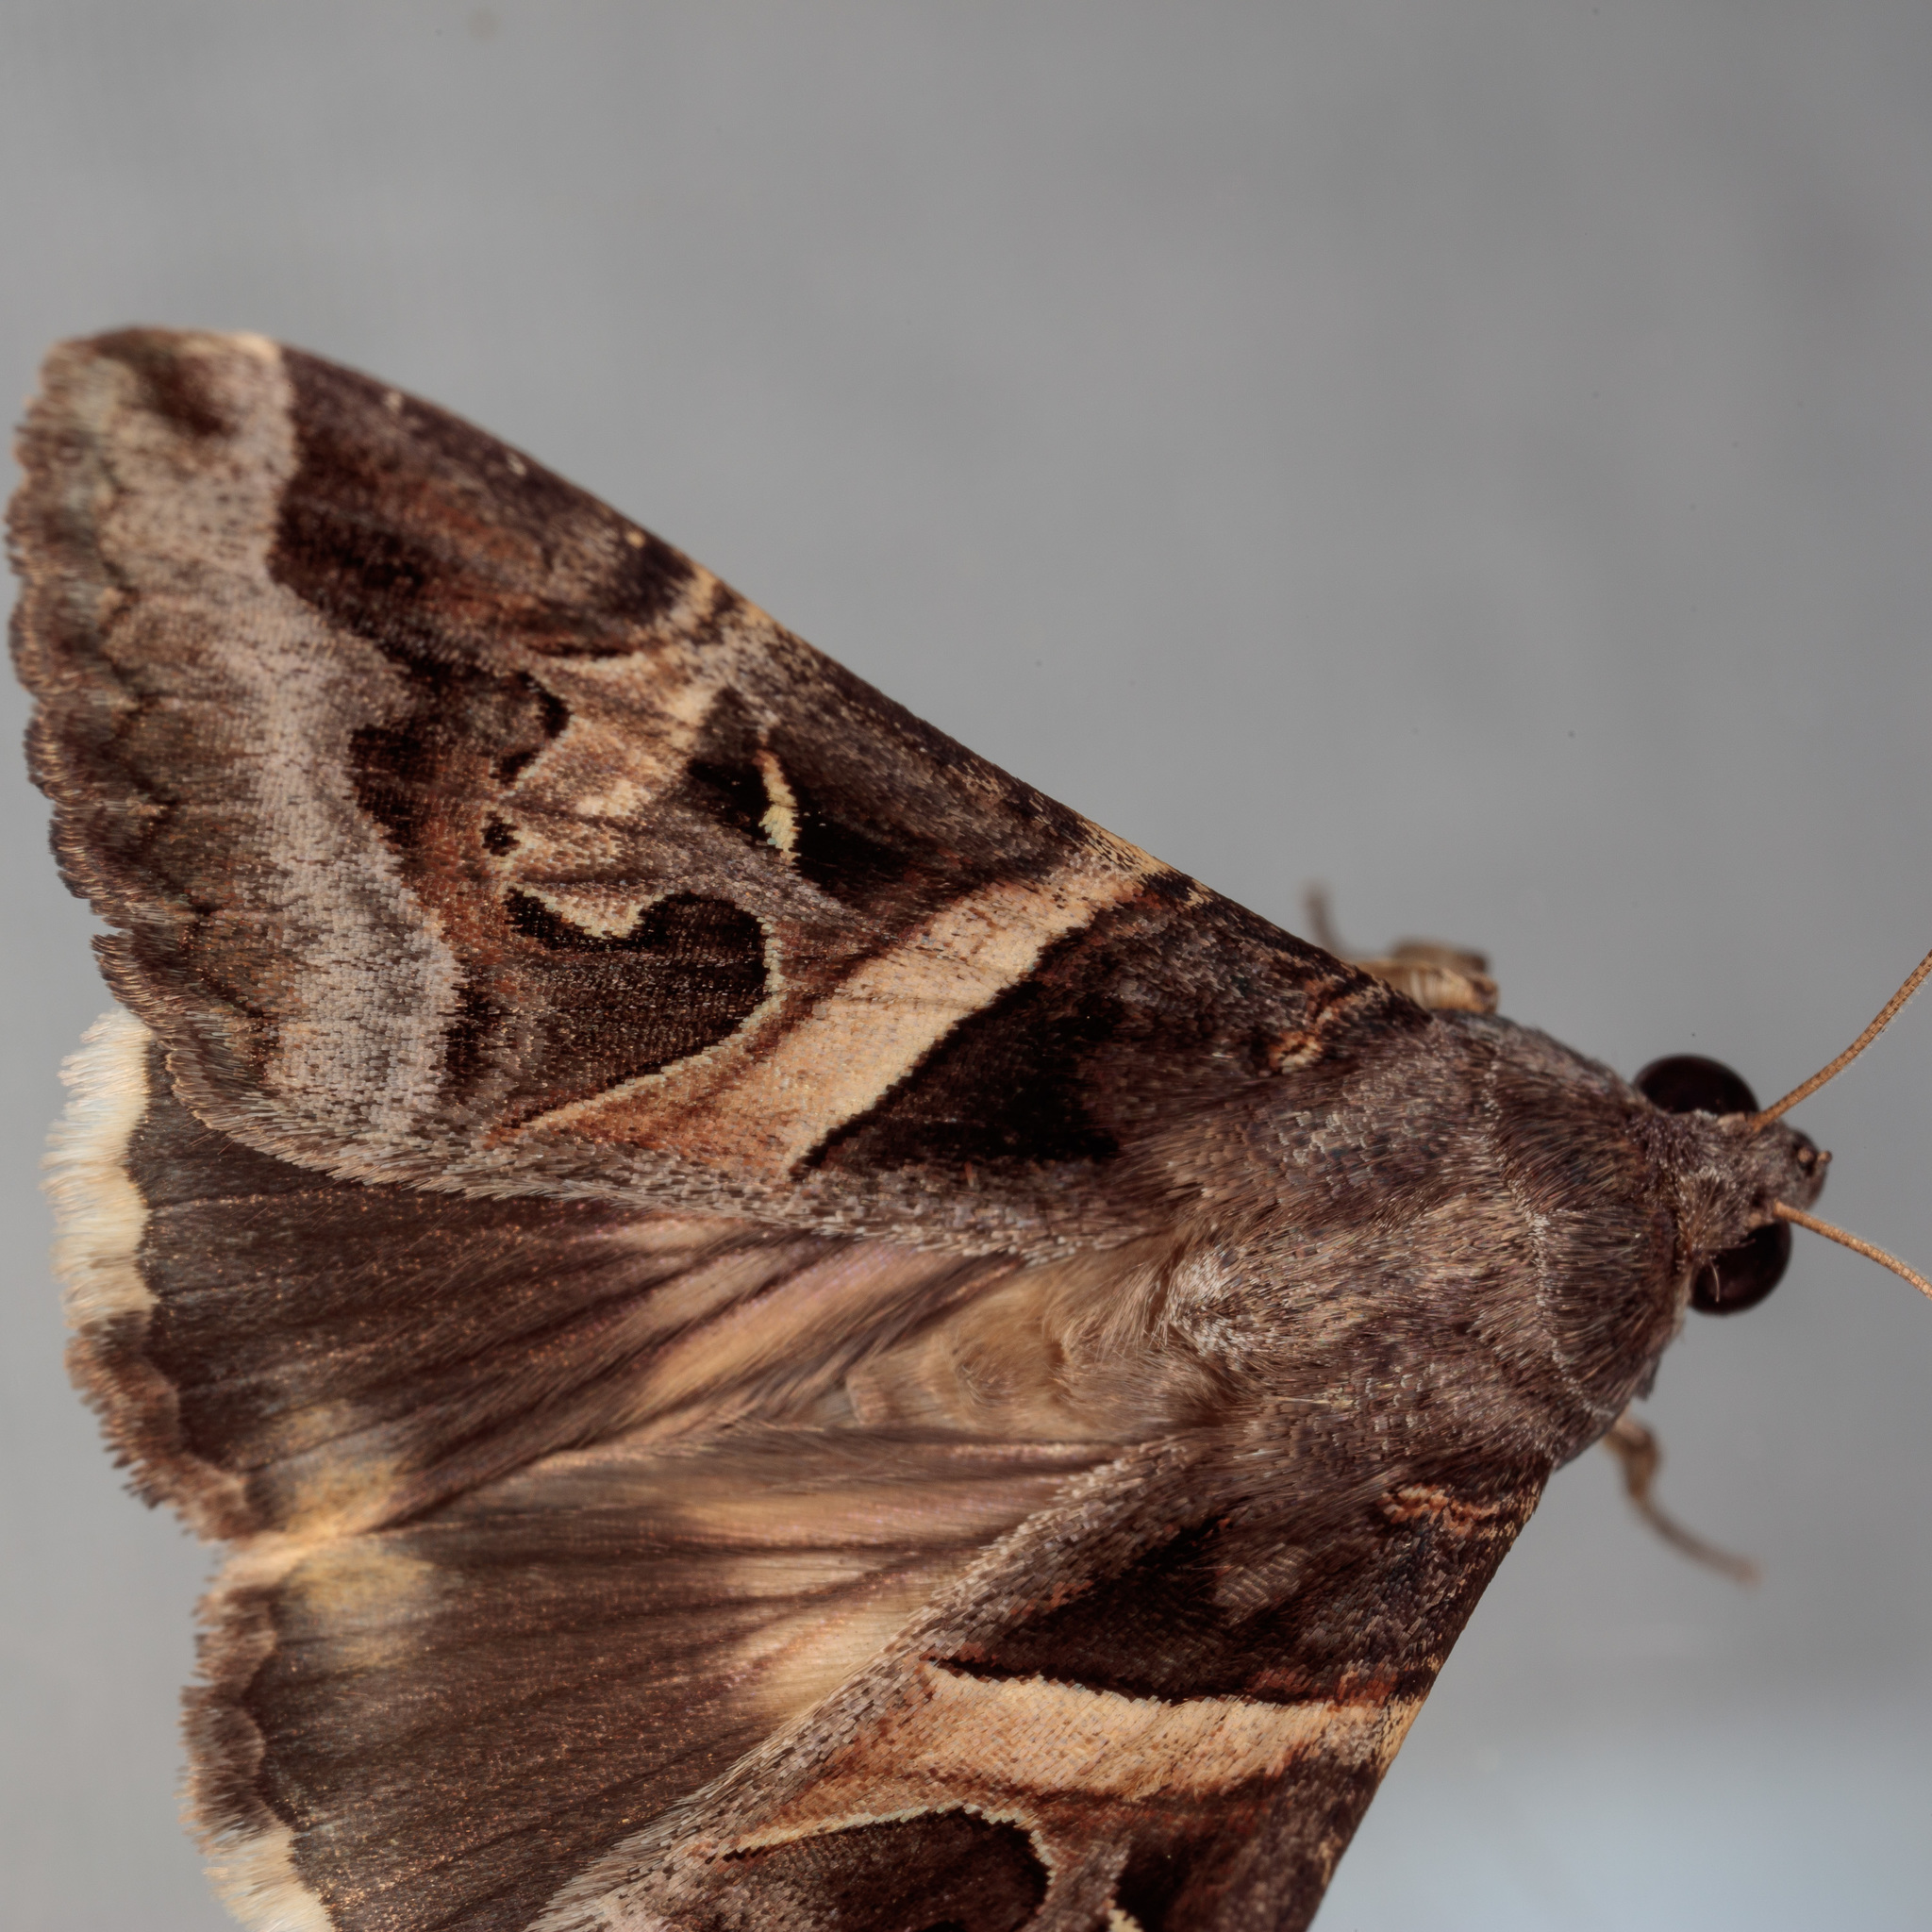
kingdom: Animalia
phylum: Arthropoda
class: Insecta
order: Lepidoptera
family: Erebidae
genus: Melipotis
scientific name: Melipotis indomita
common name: Moth
